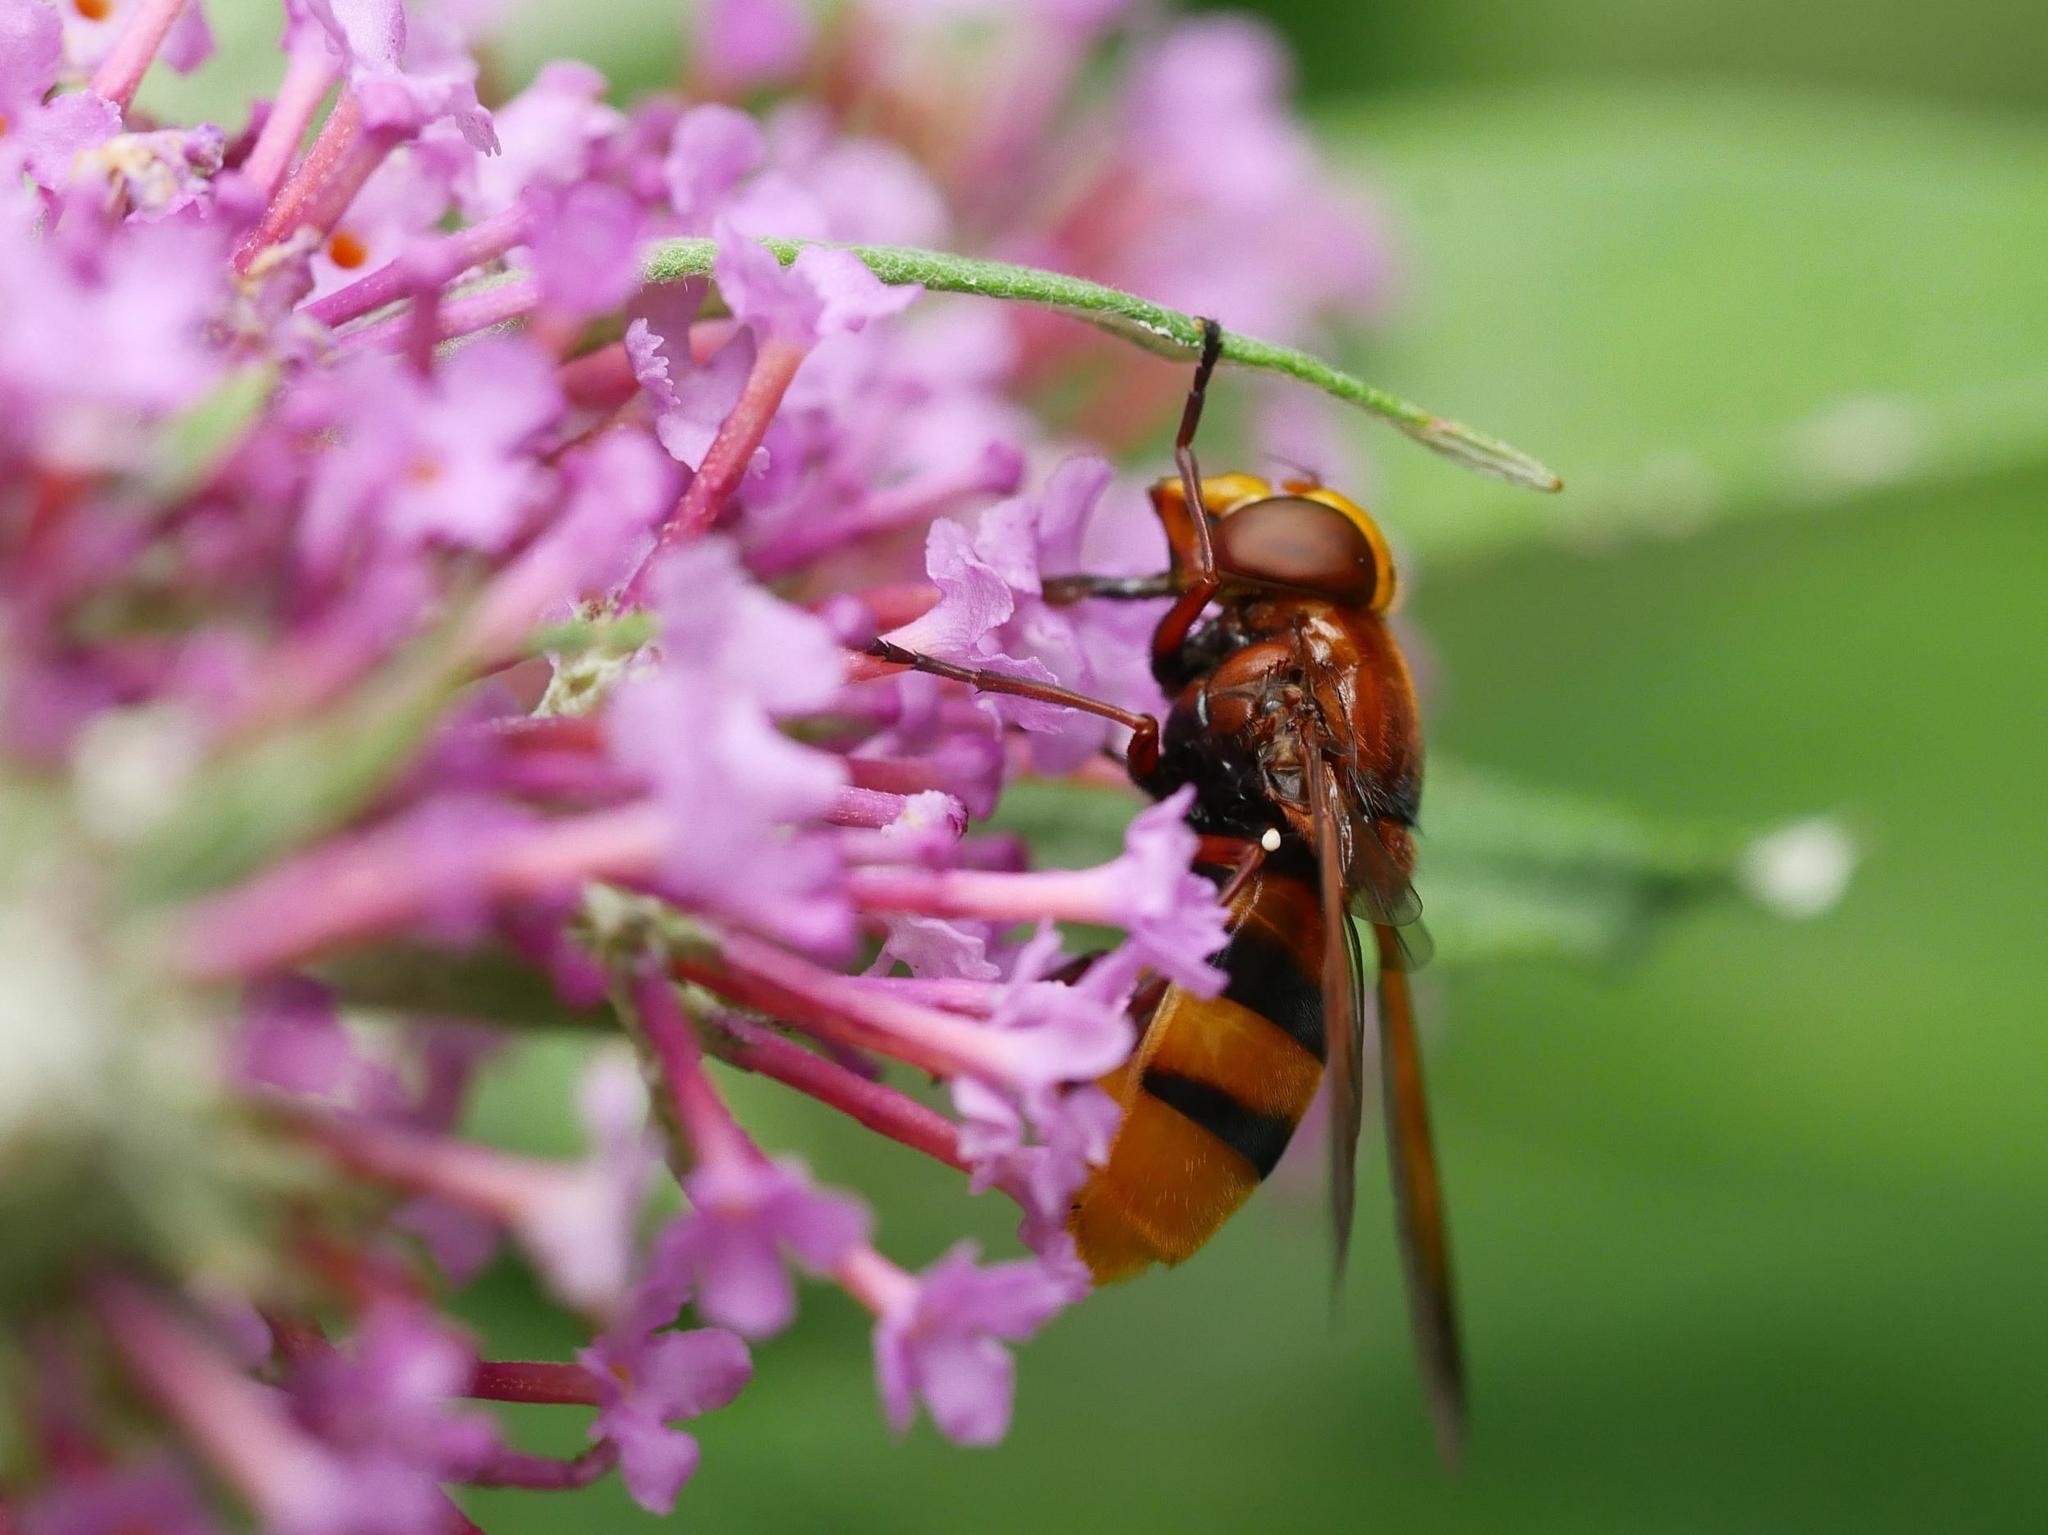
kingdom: Animalia
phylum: Arthropoda
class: Insecta
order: Diptera
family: Syrphidae
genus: Volucella
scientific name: Volucella zonaria
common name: Hornet hoverfly
